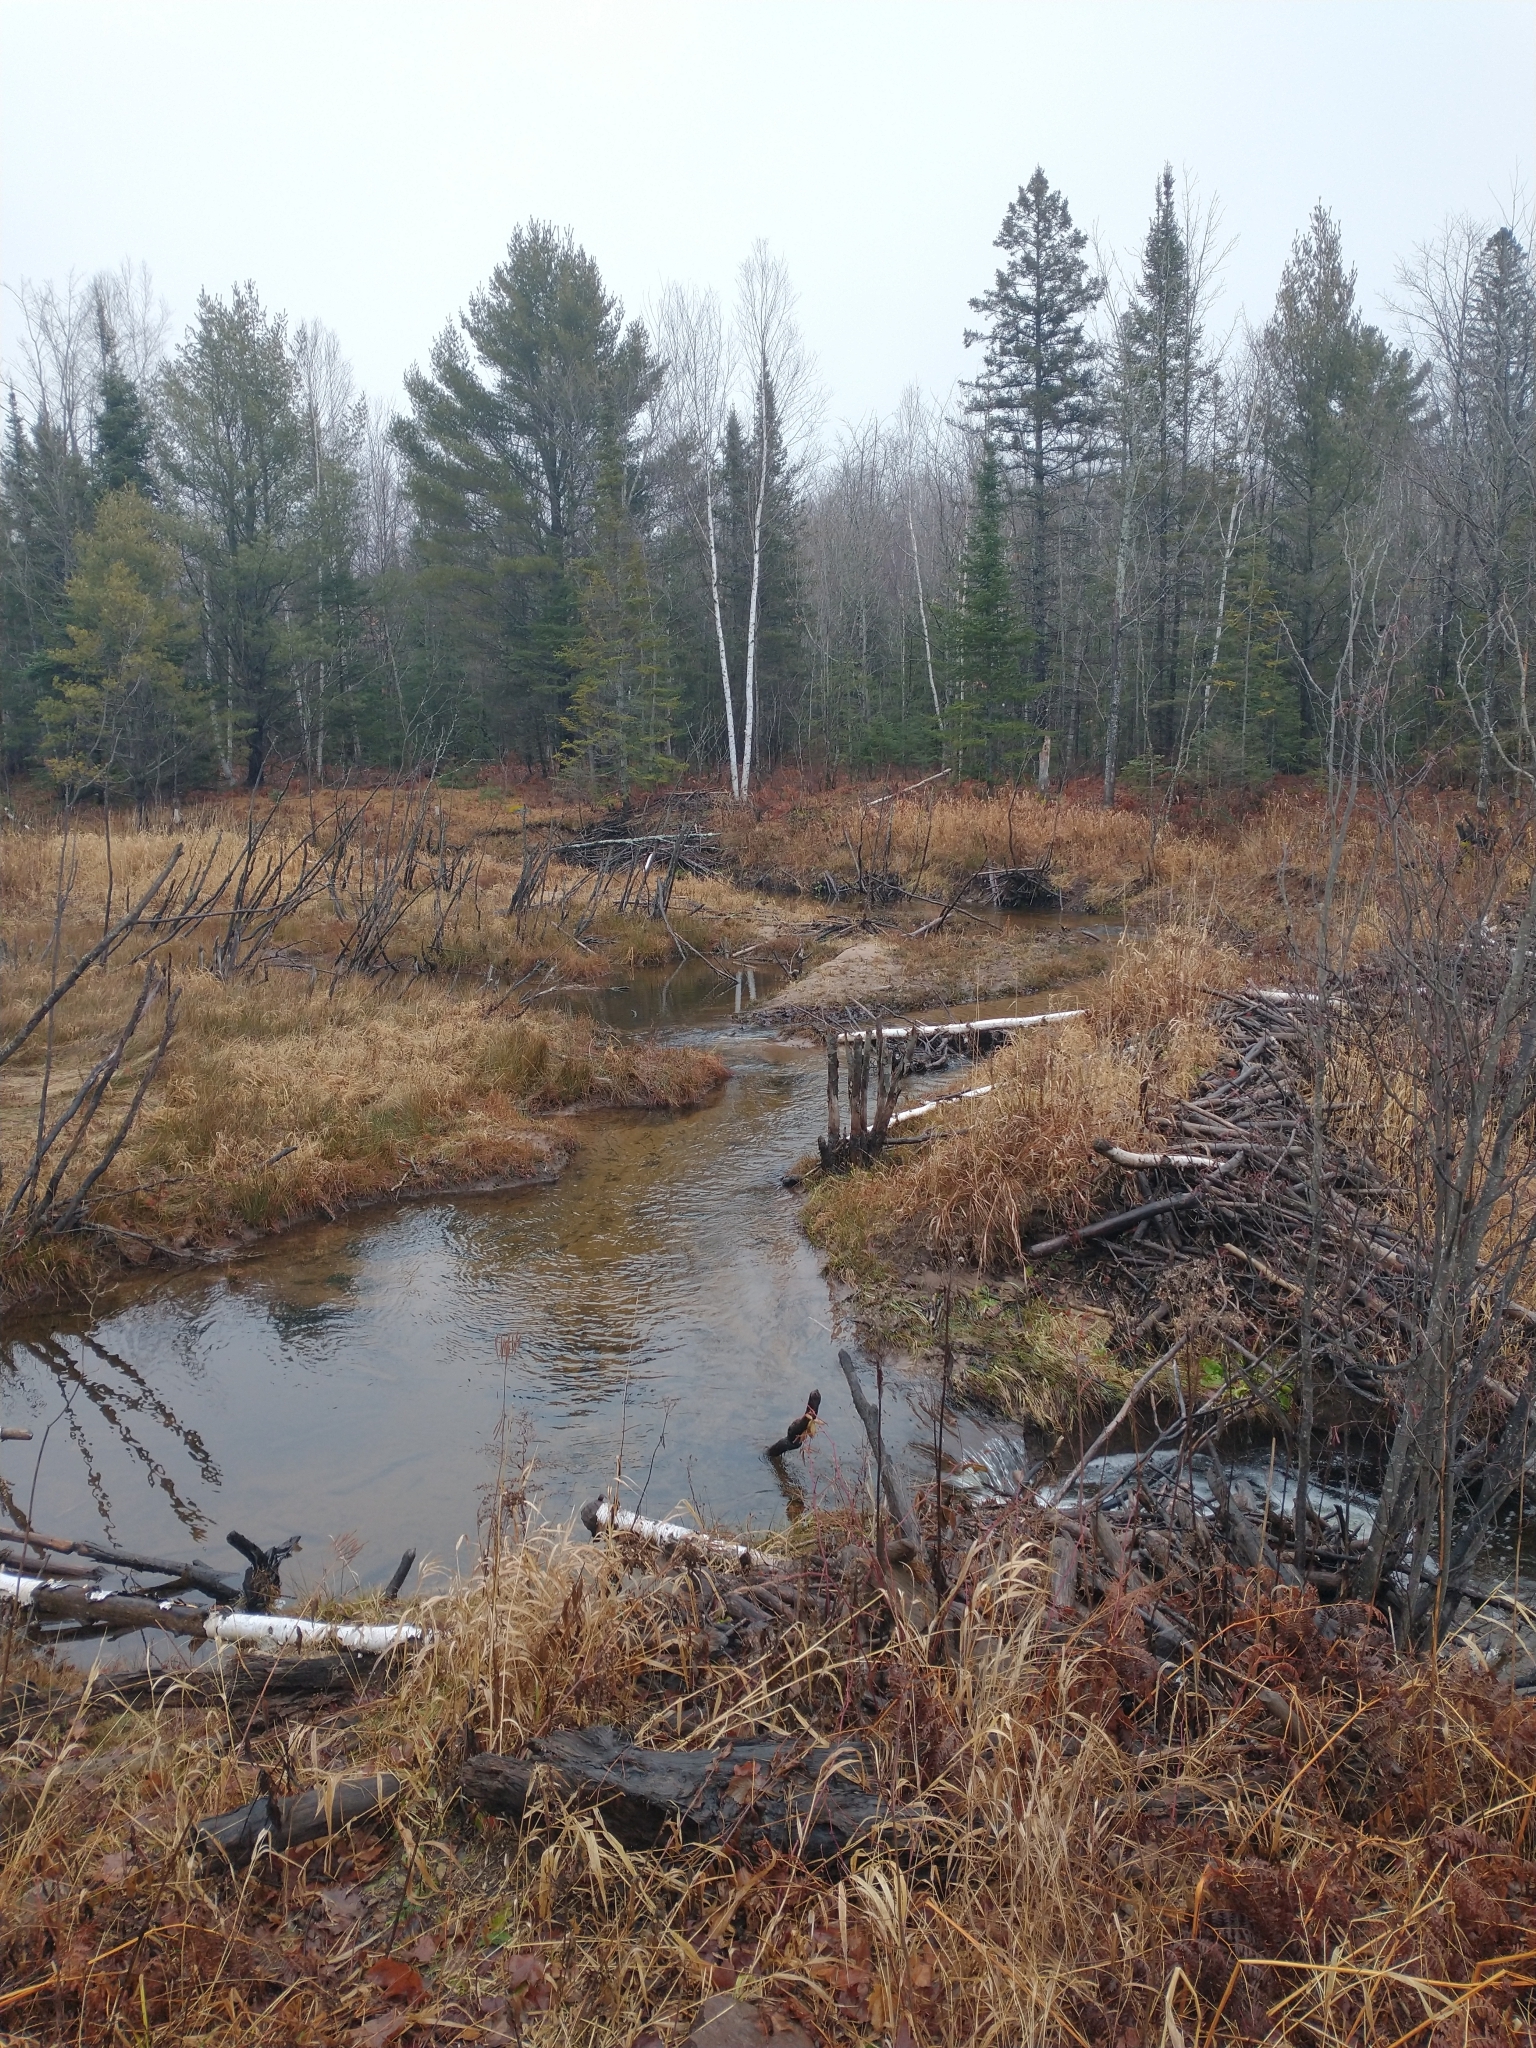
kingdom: Plantae
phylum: Tracheophyta
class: Pinopsida
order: Pinales
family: Pinaceae
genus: Pinus
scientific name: Pinus strobus
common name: Weymouth pine
